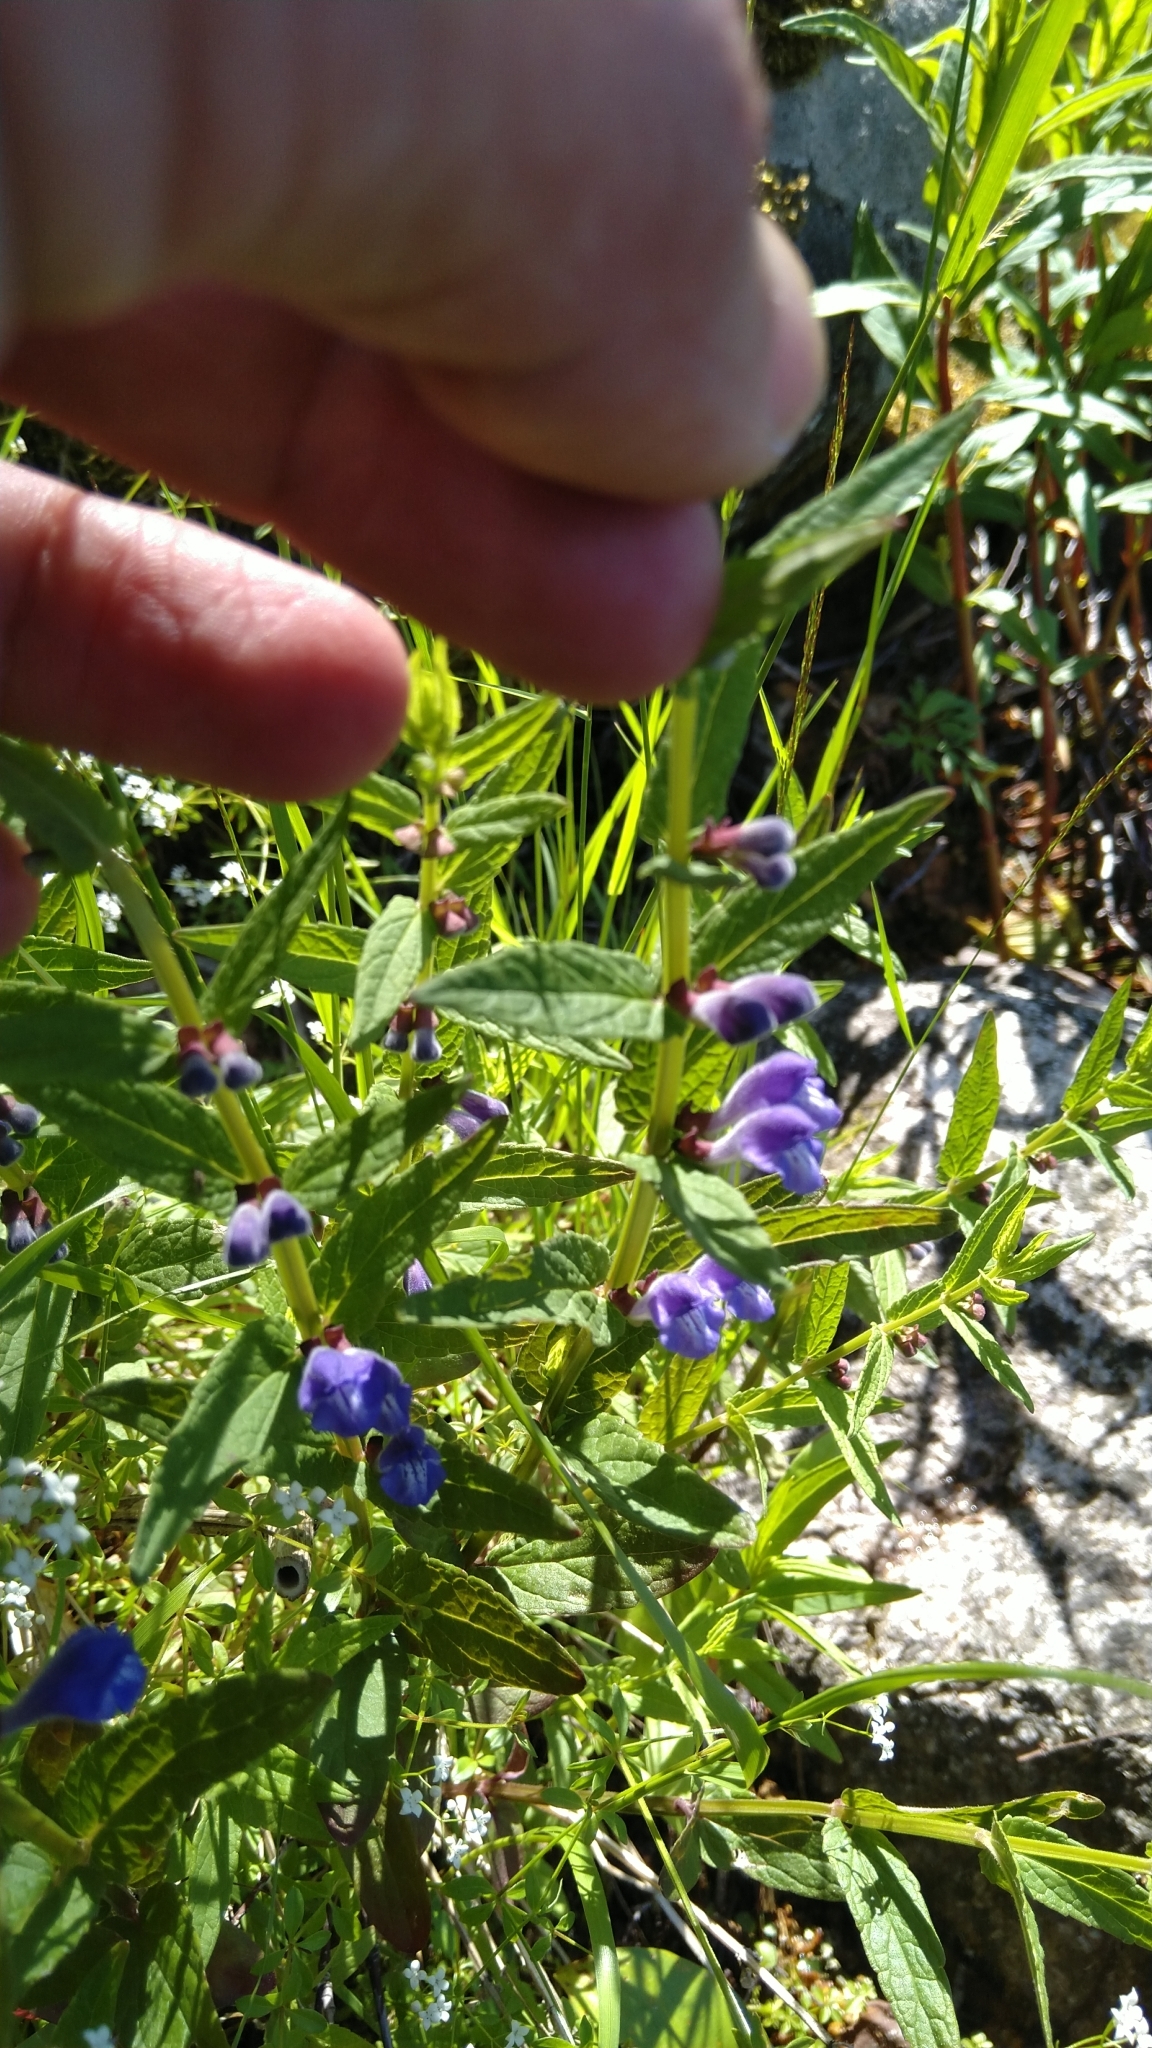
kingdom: Plantae
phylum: Tracheophyta
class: Magnoliopsida
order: Lamiales
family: Lamiaceae
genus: Scutellaria
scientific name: Scutellaria galericulata
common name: Skullcap
